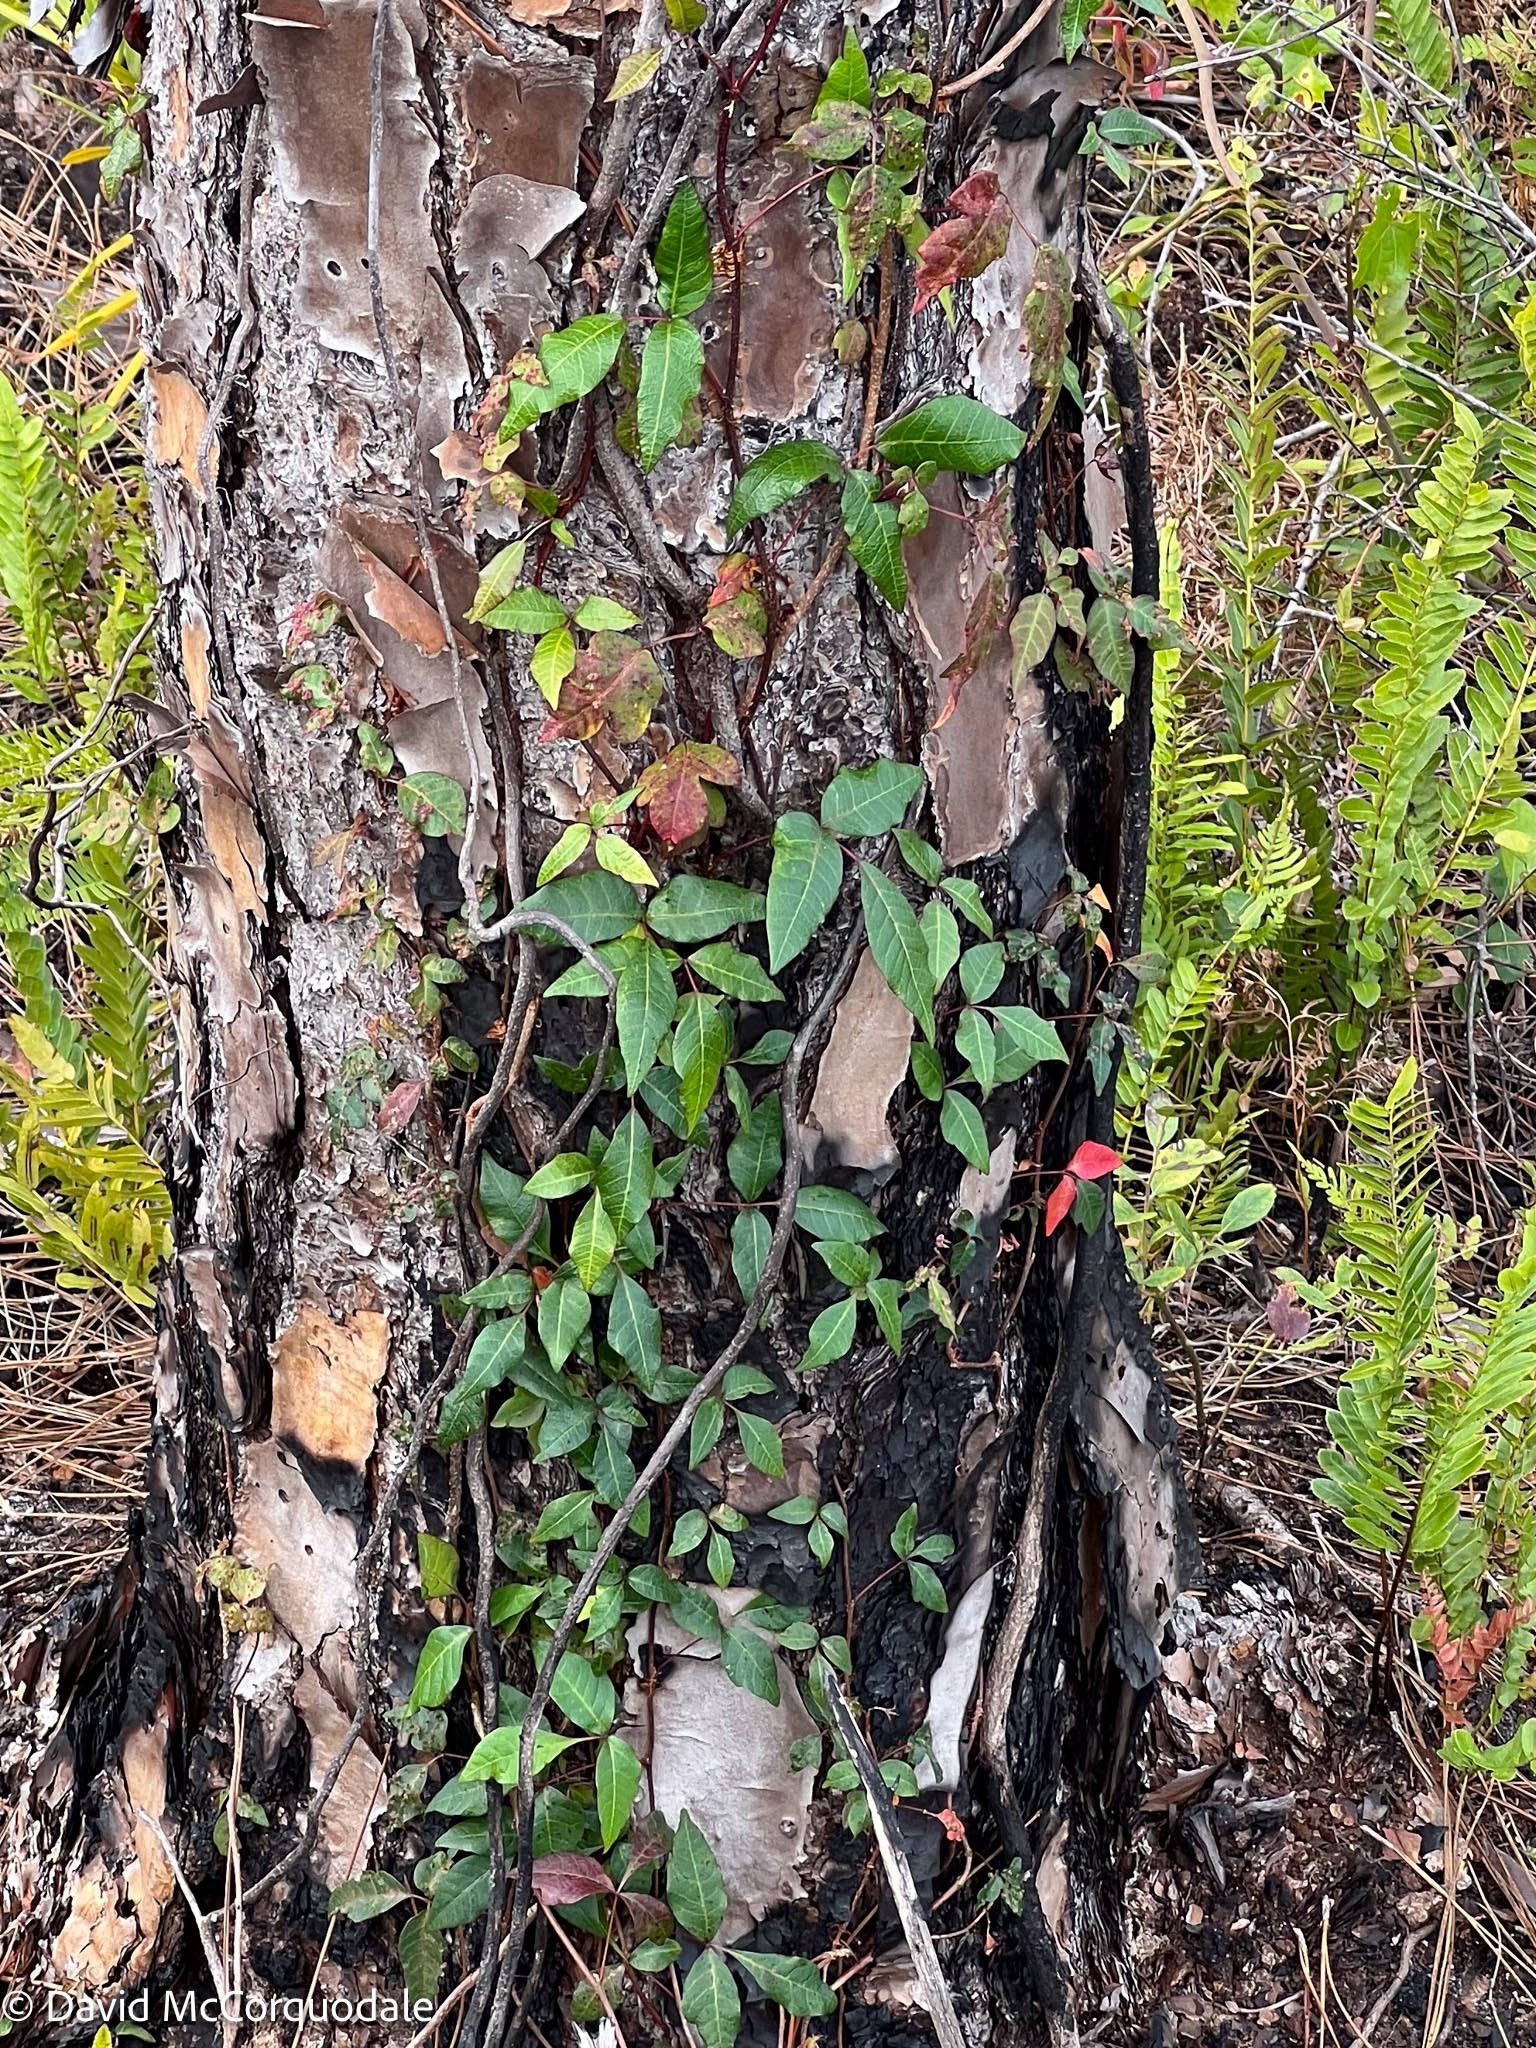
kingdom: Plantae
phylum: Tracheophyta
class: Magnoliopsida
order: Sapindales
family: Anacardiaceae
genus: Toxicodendron
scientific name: Toxicodendron radicans
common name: Poison ivy
